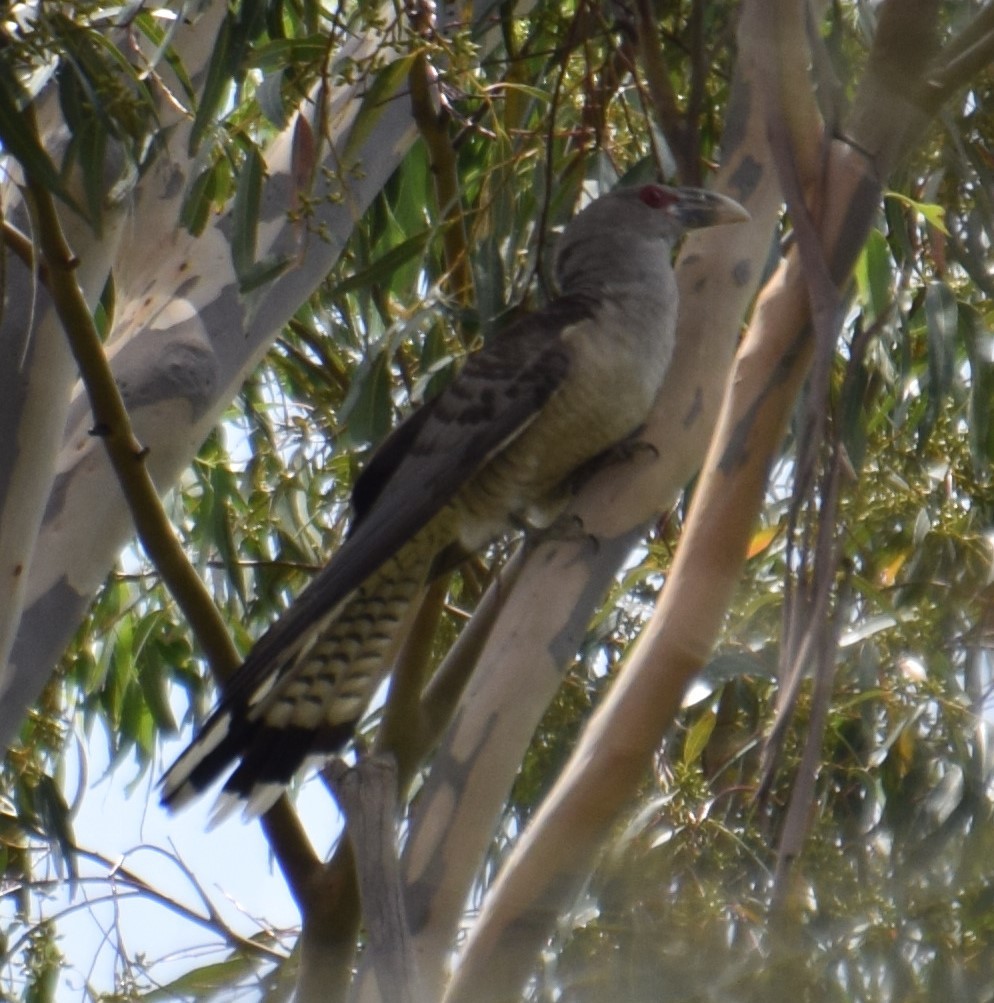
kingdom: Animalia
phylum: Chordata
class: Aves
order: Cuculiformes
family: Cuculidae
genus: Scythrops
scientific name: Scythrops novaehollandiae
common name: Channel-billed cuckoo
